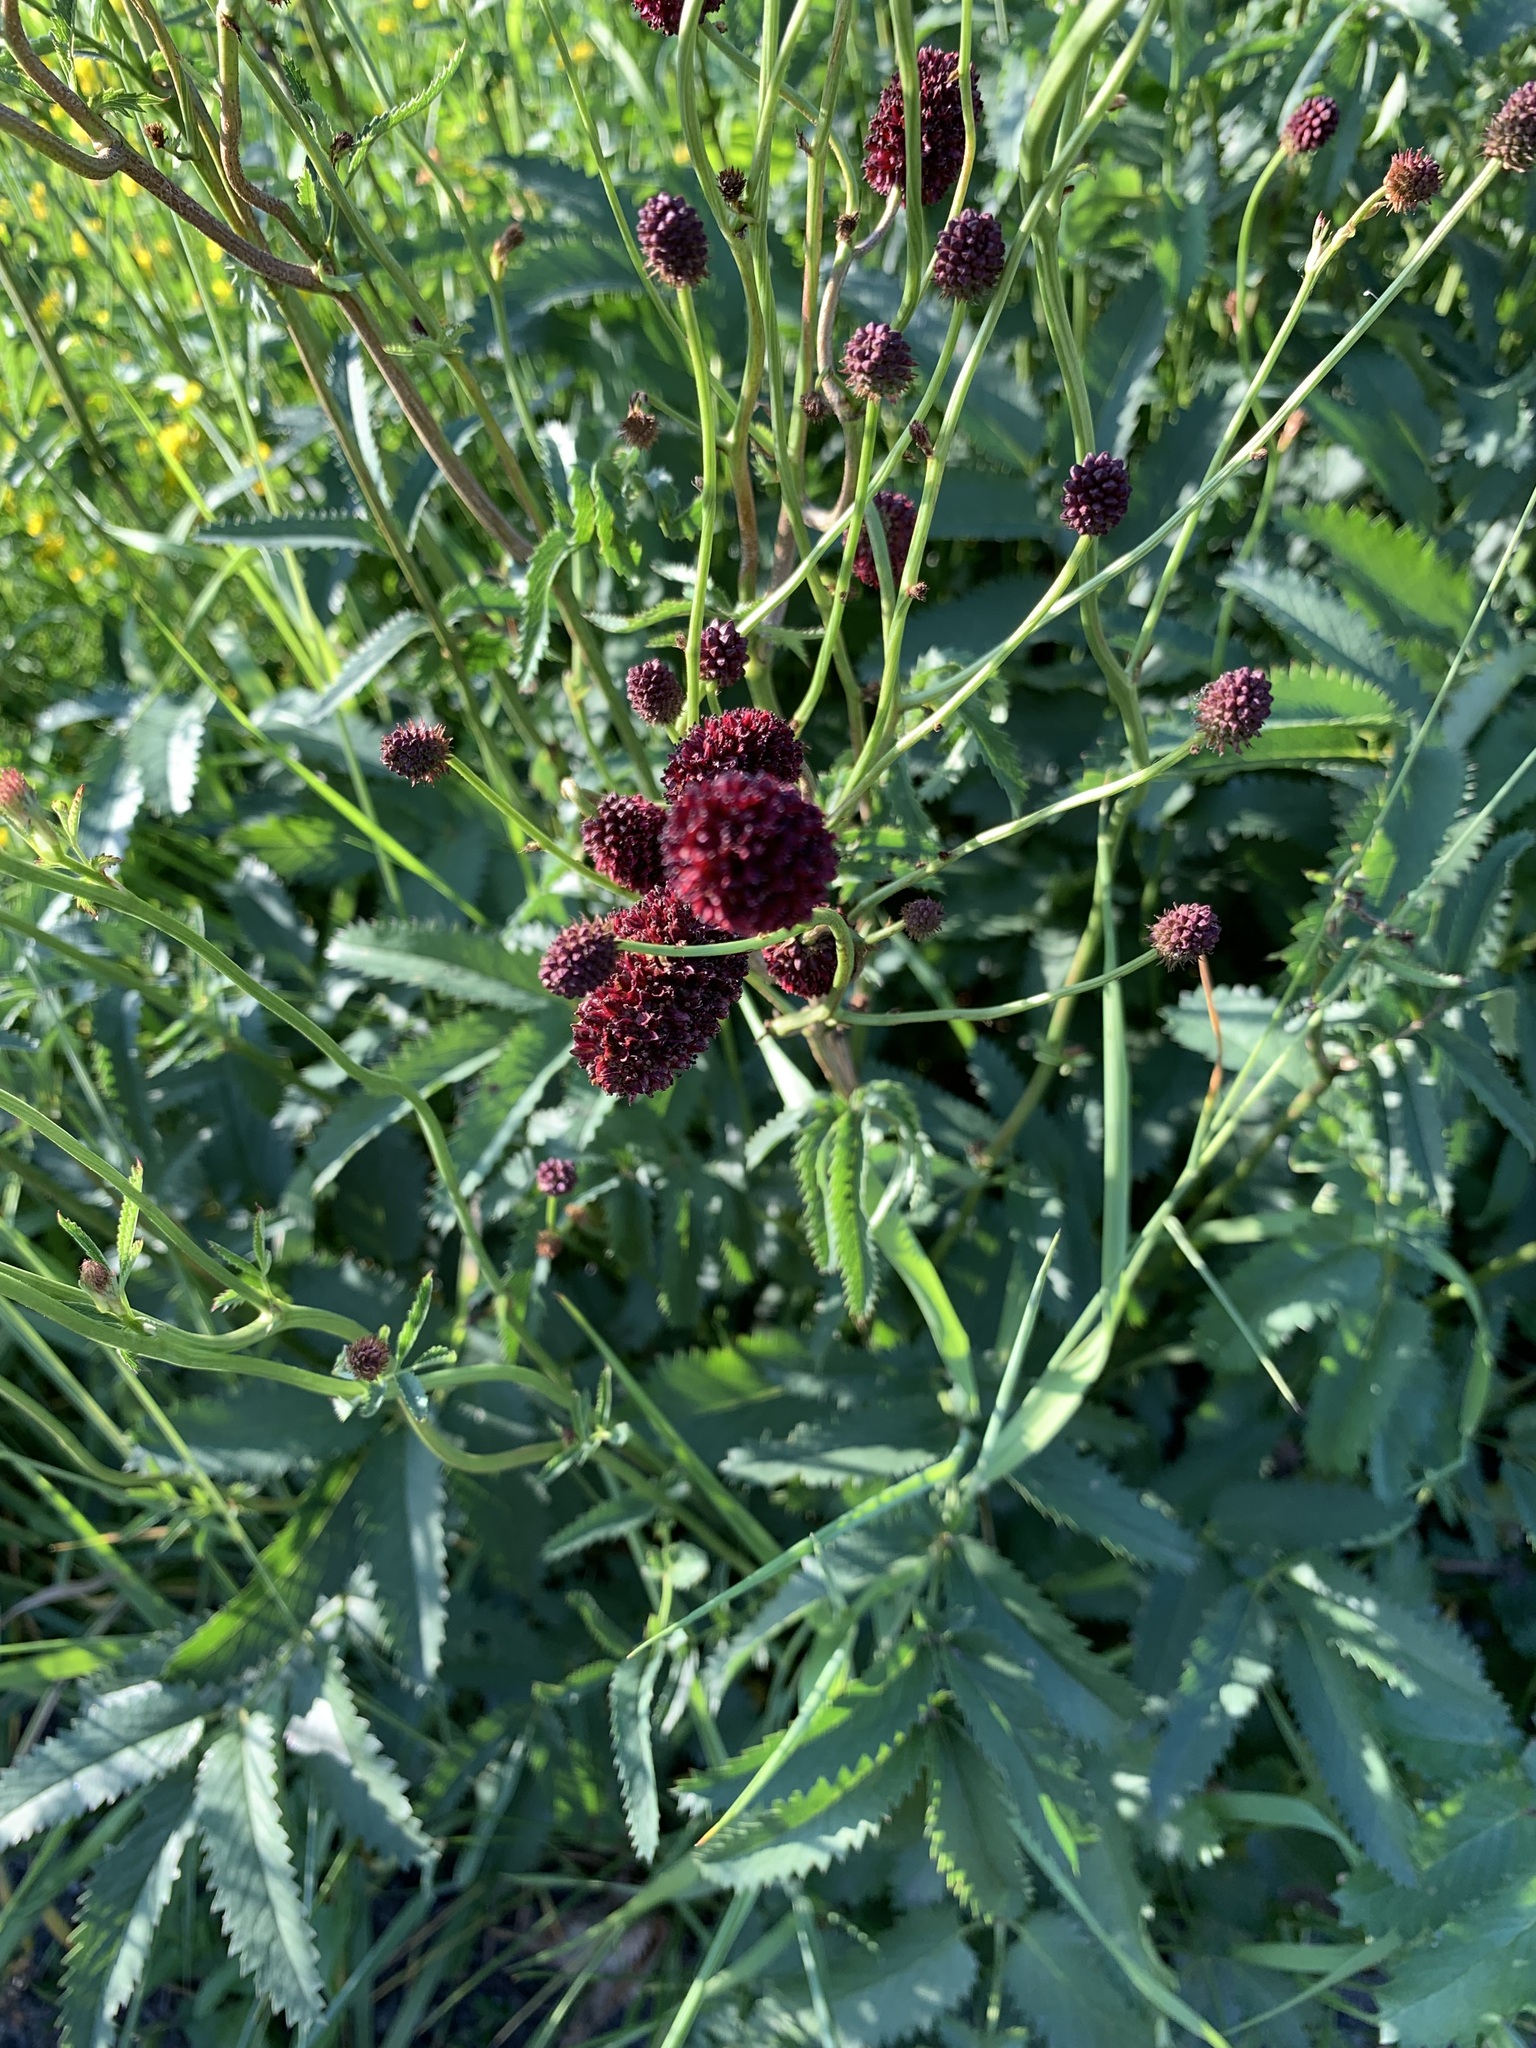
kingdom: Plantae
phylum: Tracheophyta
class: Magnoliopsida
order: Rosales
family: Rosaceae
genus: Sanguisorba
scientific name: Sanguisorba officinalis
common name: Great burnet
